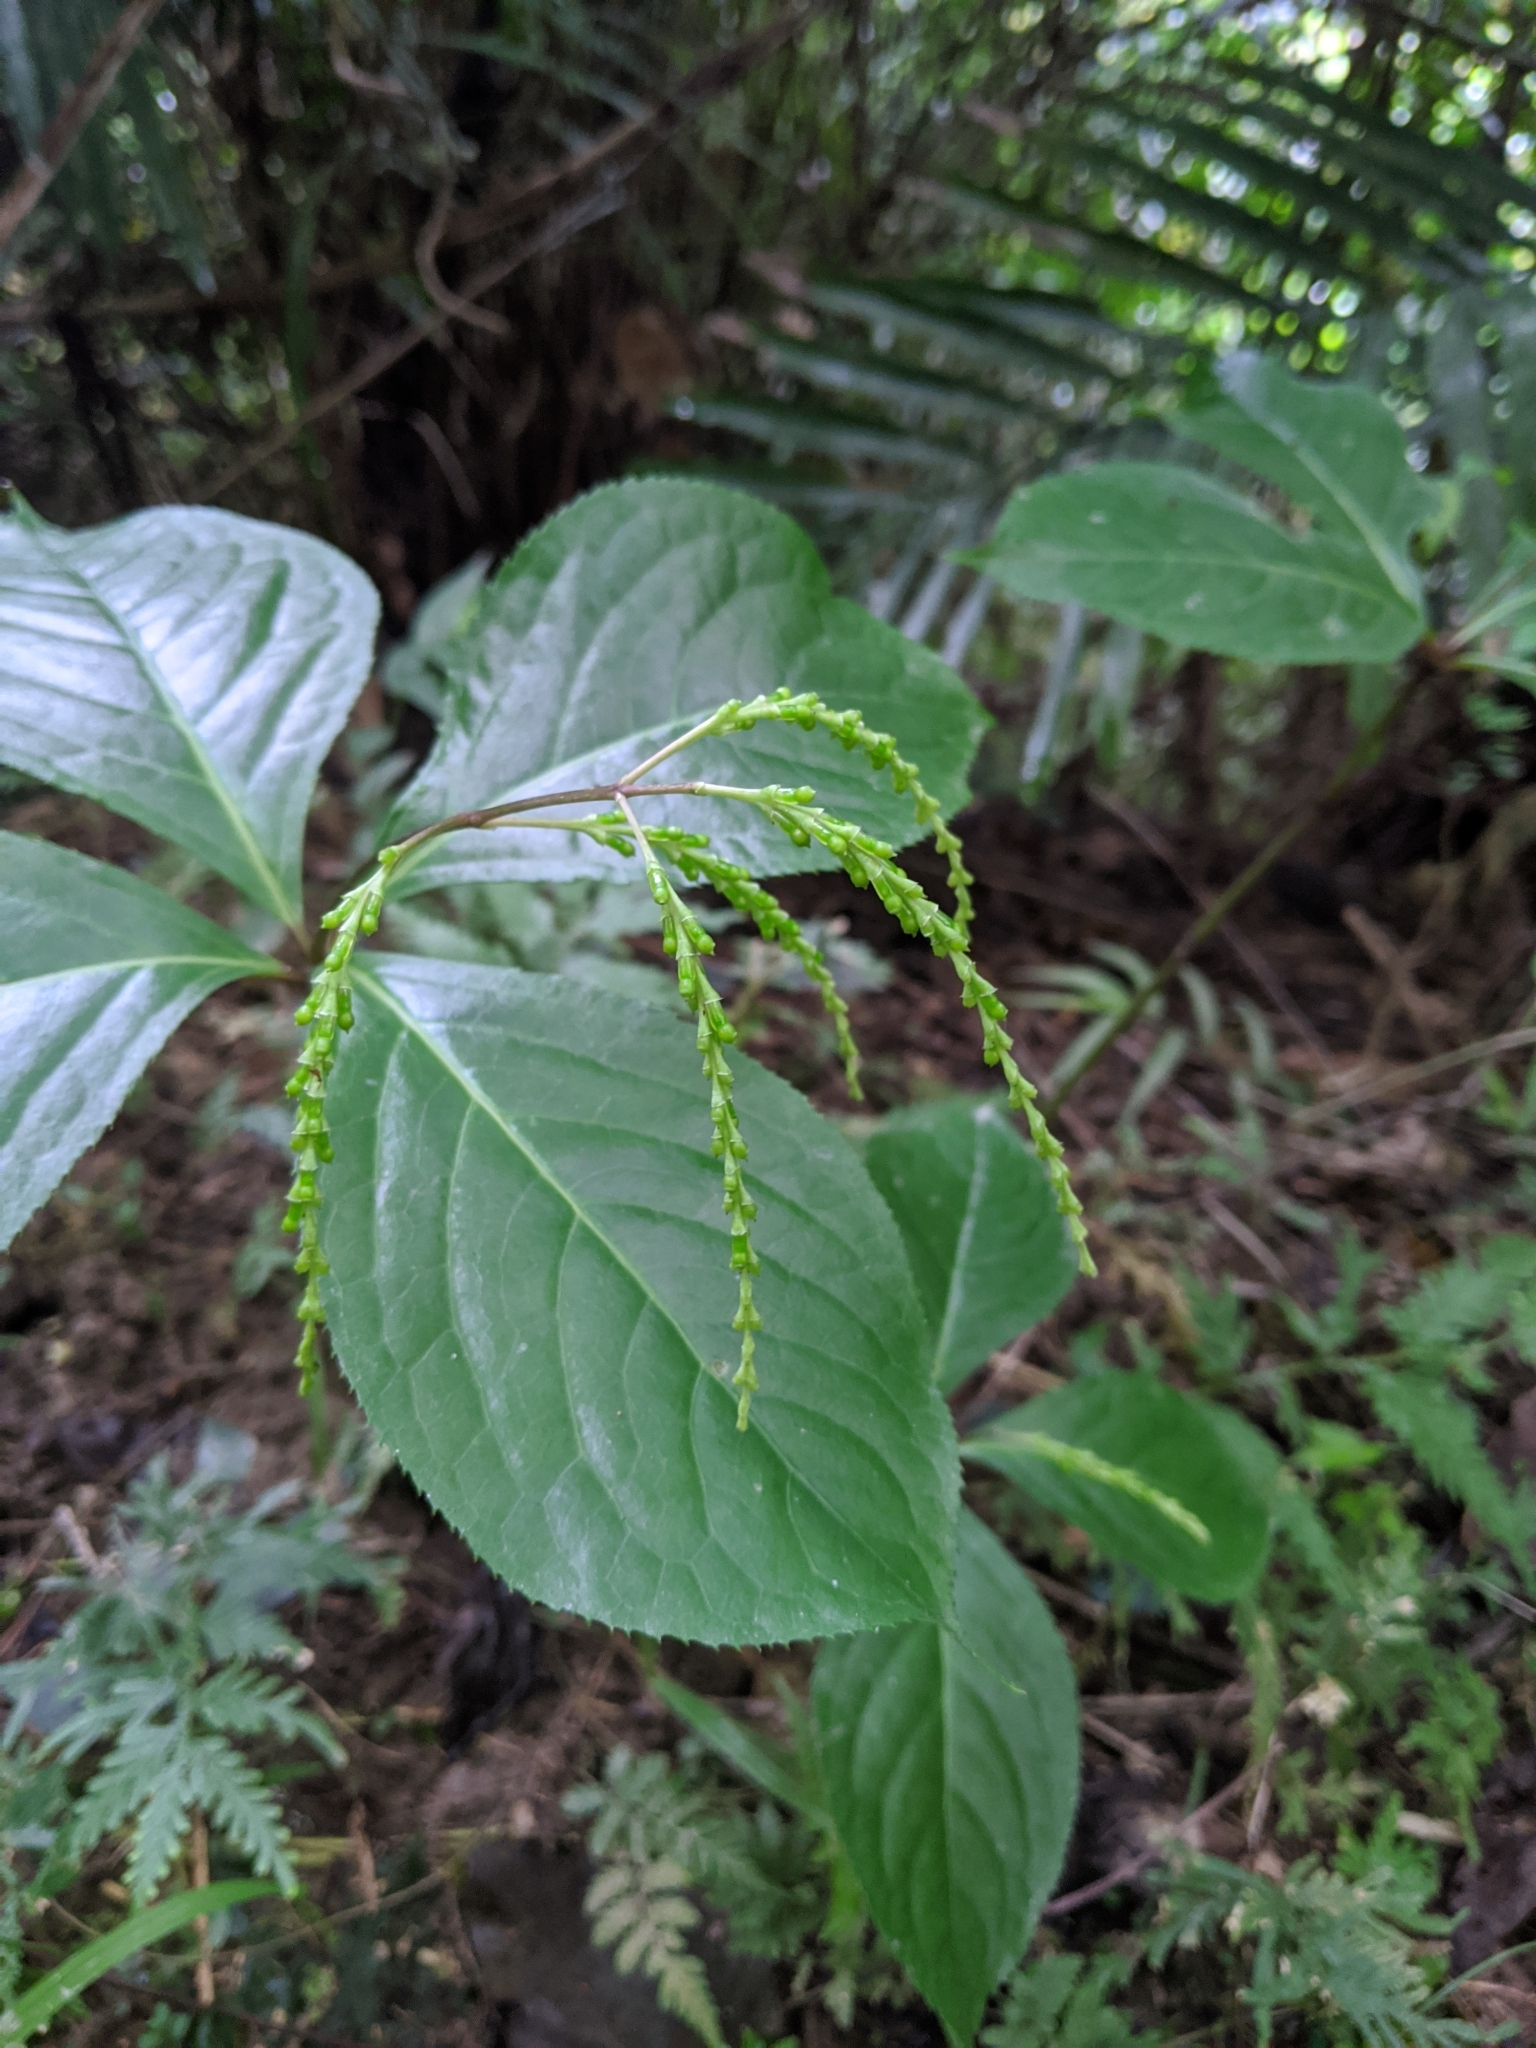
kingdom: Plantae
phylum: Tracheophyta
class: Magnoliopsida
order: Chloranthales
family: Chloranthaceae
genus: Chloranthus
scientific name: Chloranthus oldhamii
